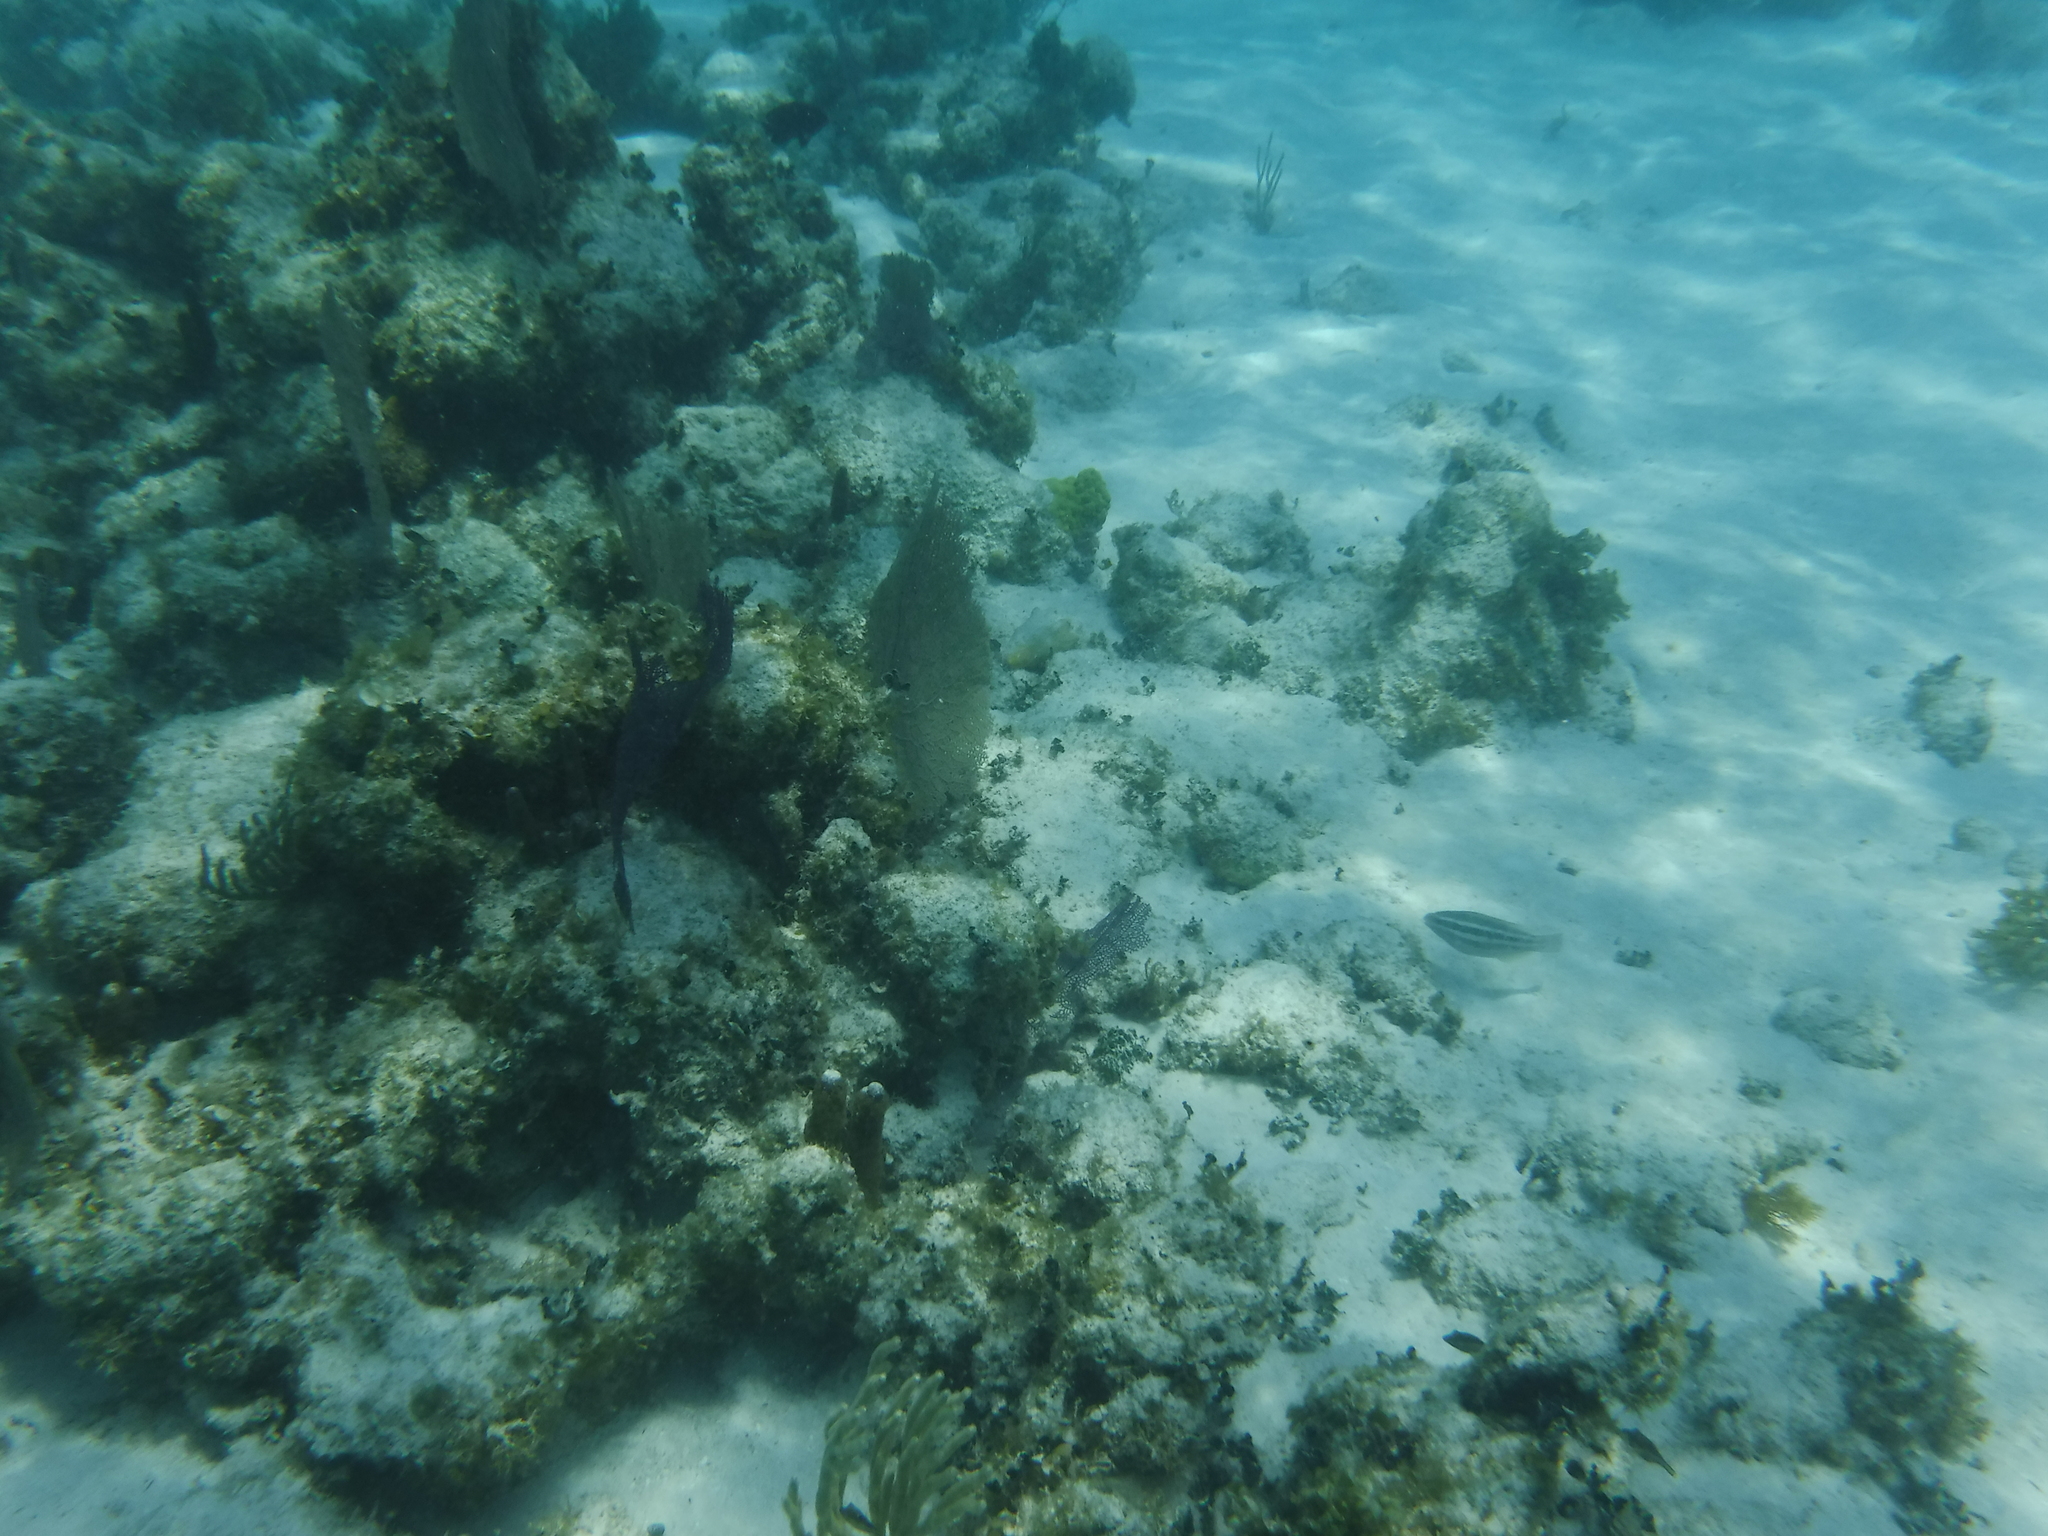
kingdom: Animalia
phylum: Cnidaria
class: Anthozoa
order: Malacalcyonacea
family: Gorgoniidae
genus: Gorgonia
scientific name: Gorgonia
